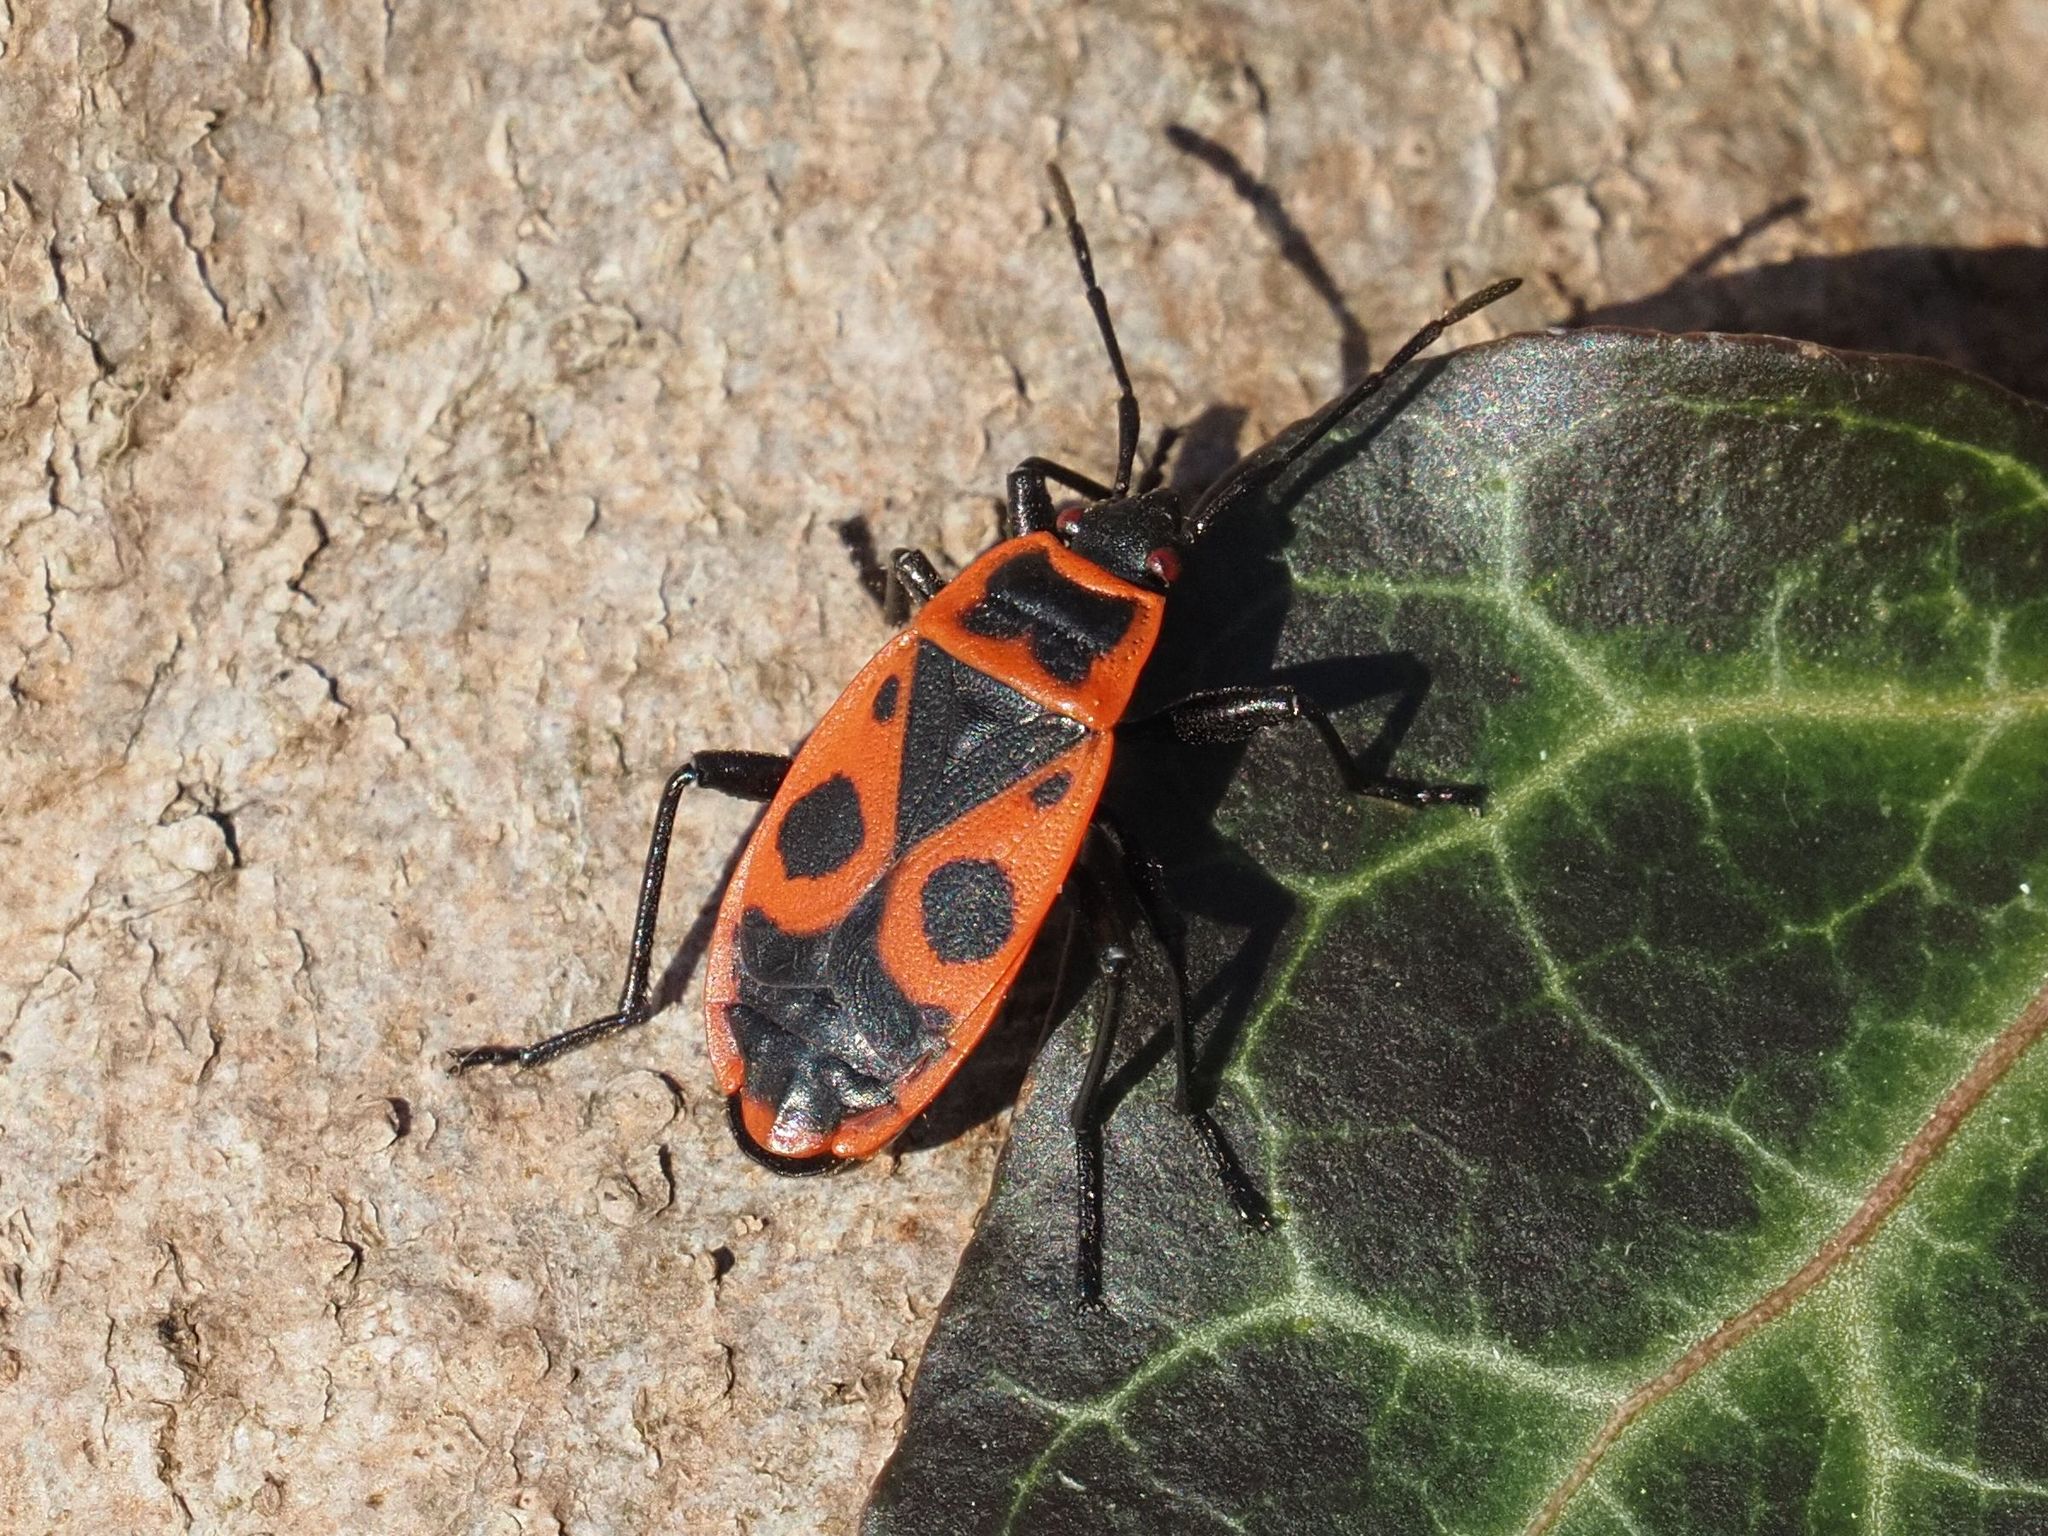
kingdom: Animalia
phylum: Arthropoda
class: Insecta
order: Hemiptera
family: Pyrrhocoridae
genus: Pyrrhocoris
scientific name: Pyrrhocoris apterus
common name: Firebug
